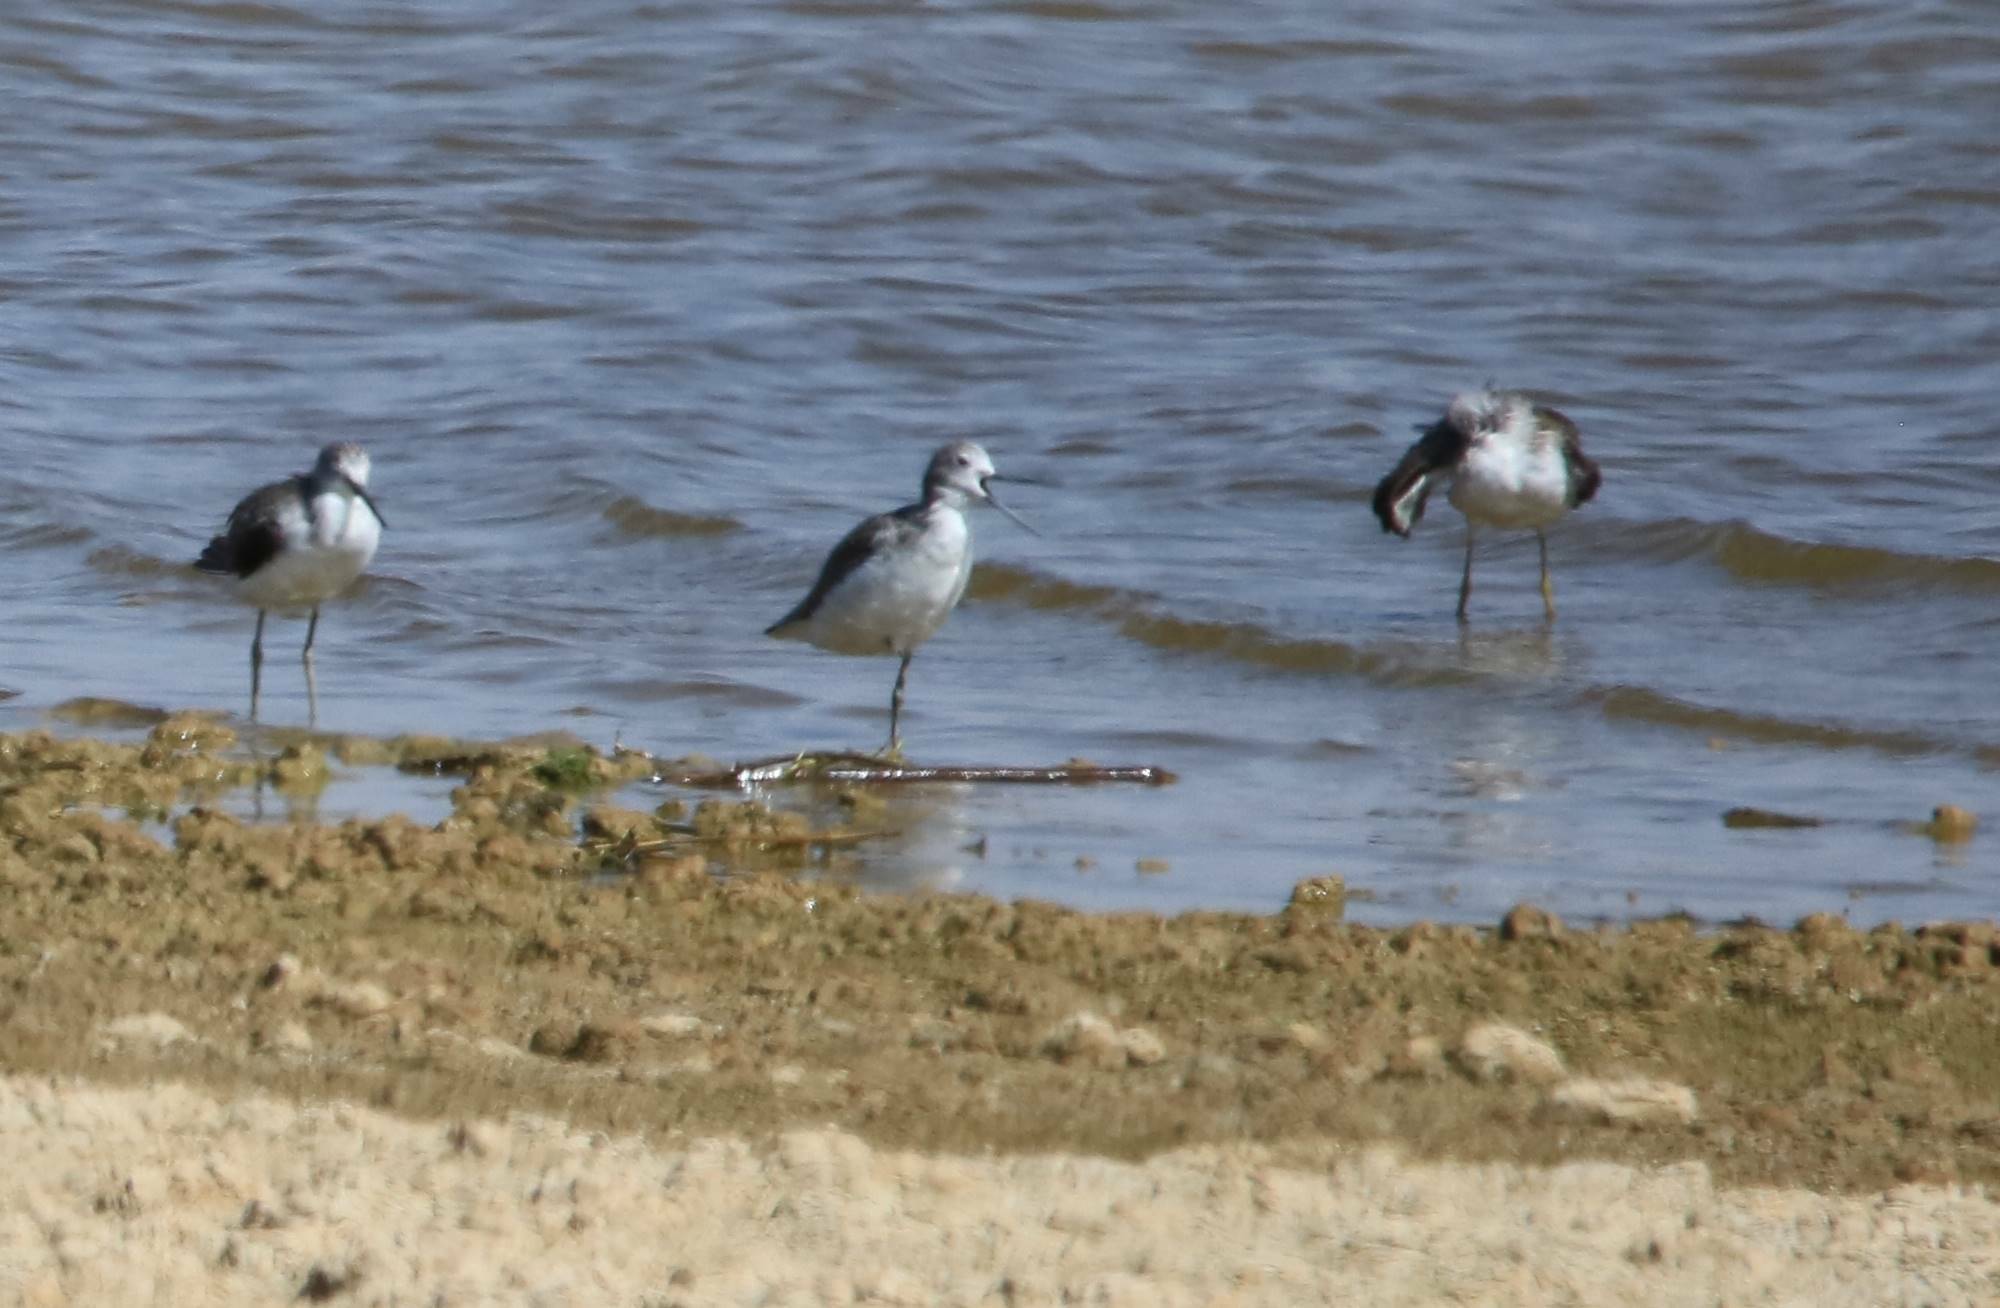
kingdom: Animalia
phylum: Chordata
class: Aves
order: Charadriiformes
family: Scolopacidae
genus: Tringa
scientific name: Tringa nebularia
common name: Common greenshank
